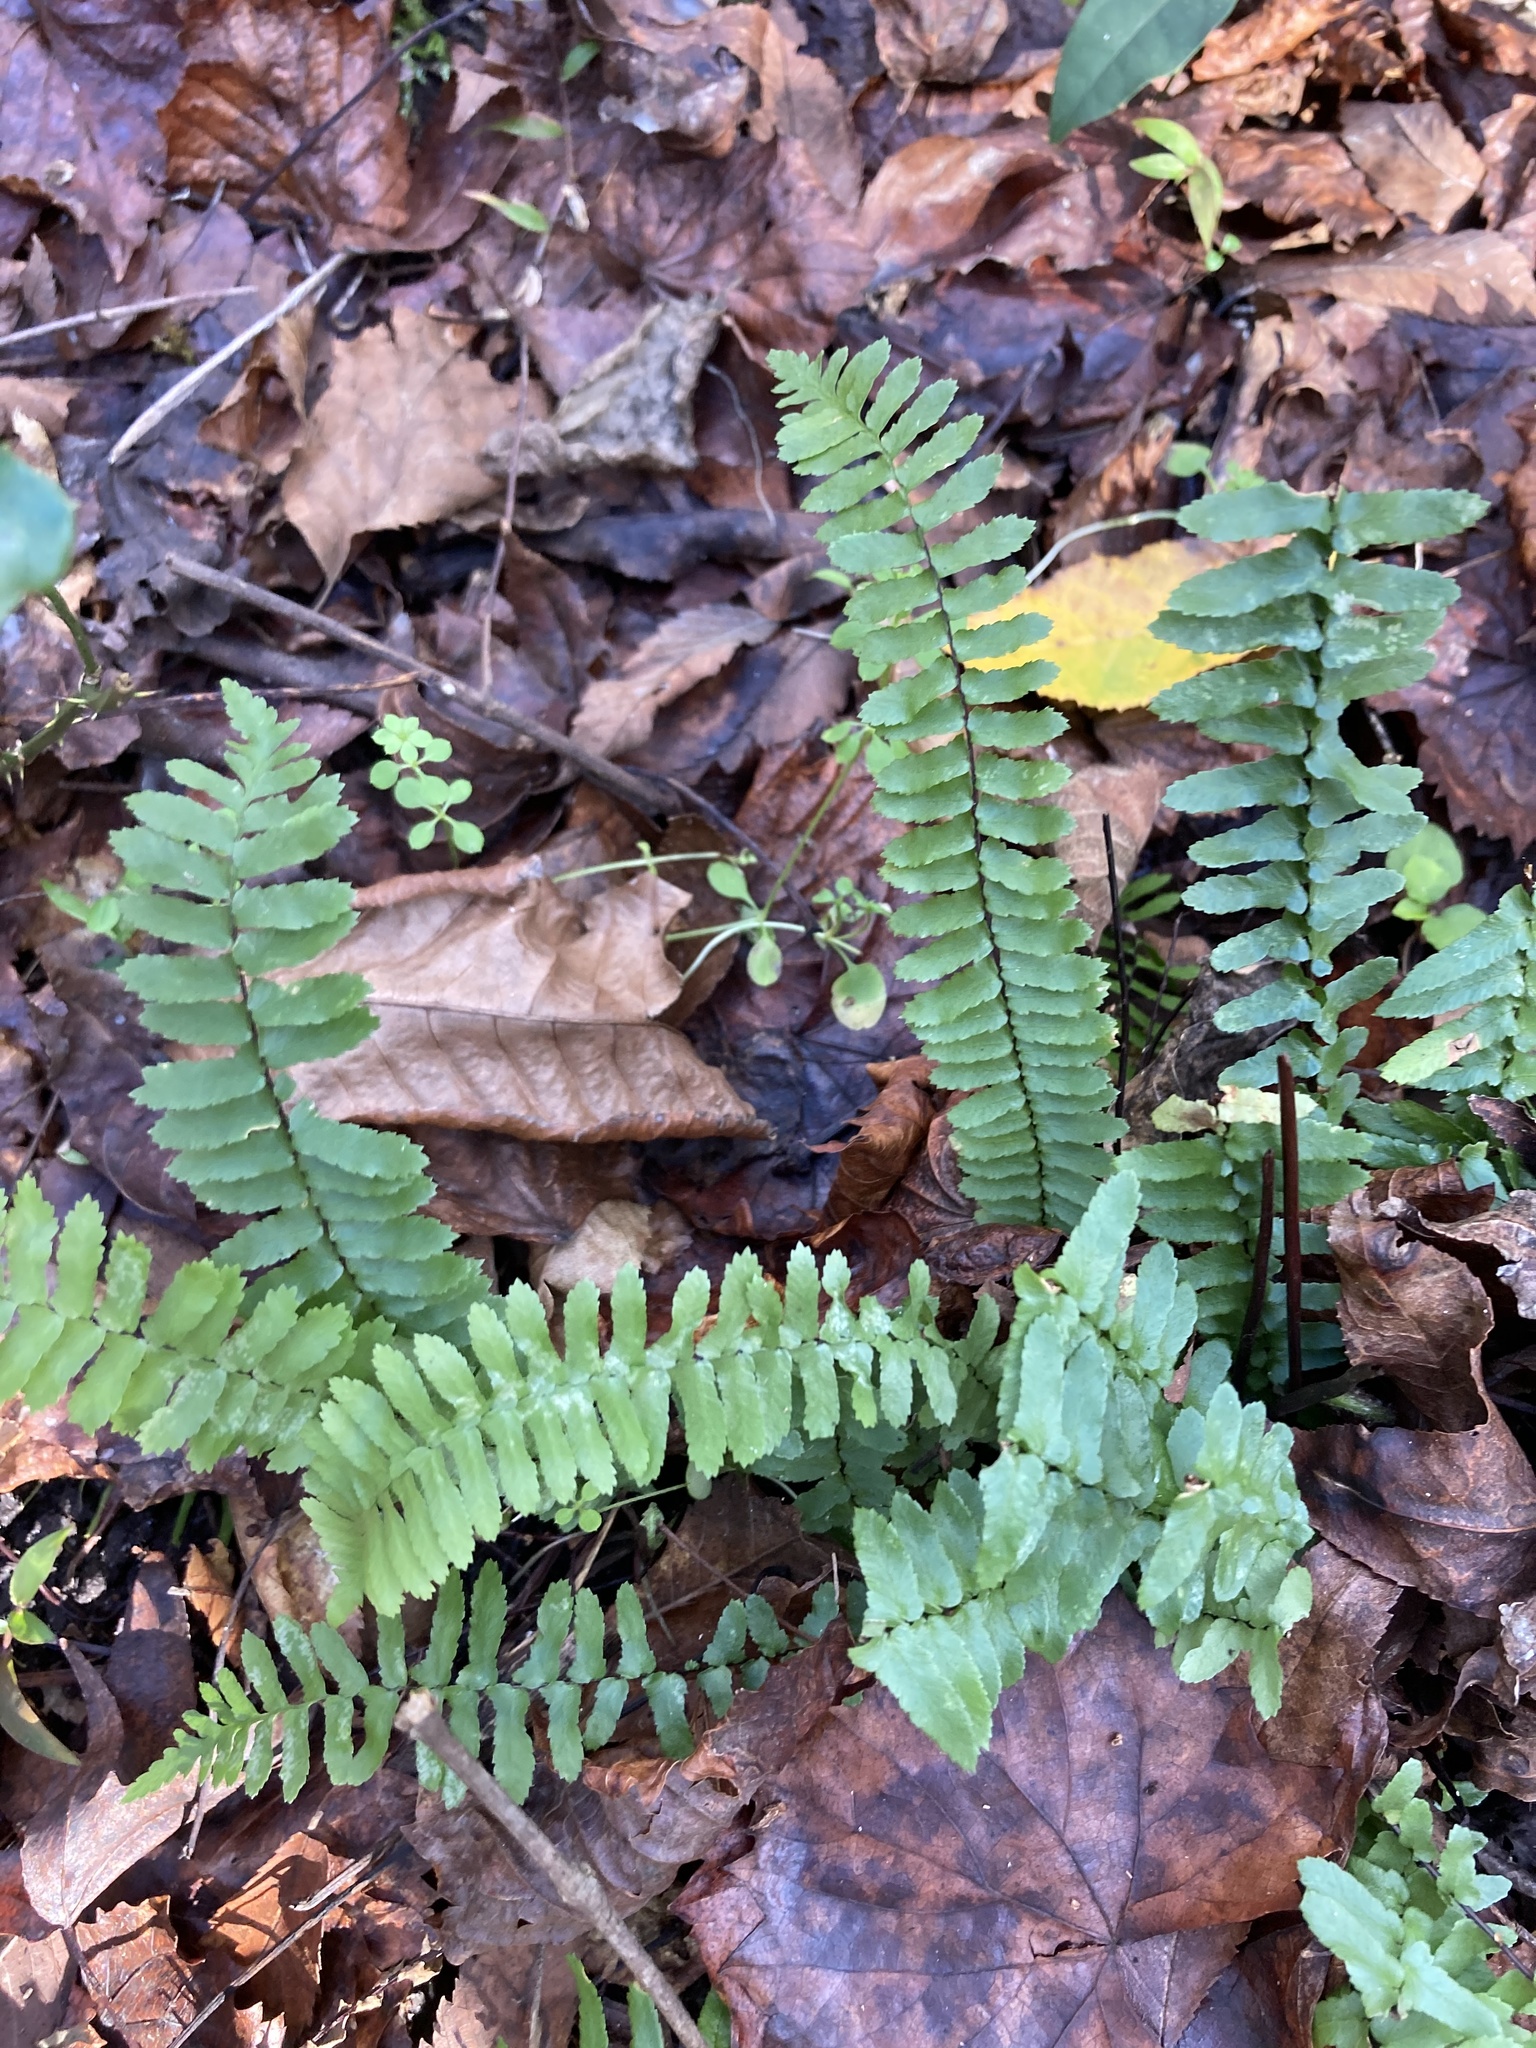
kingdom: Plantae
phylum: Tracheophyta
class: Polypodiopsida
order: Polypodiales
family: Aspleniaceae
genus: Asplenium
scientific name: Asplenium platyneuron
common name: Ebony spleenwort
